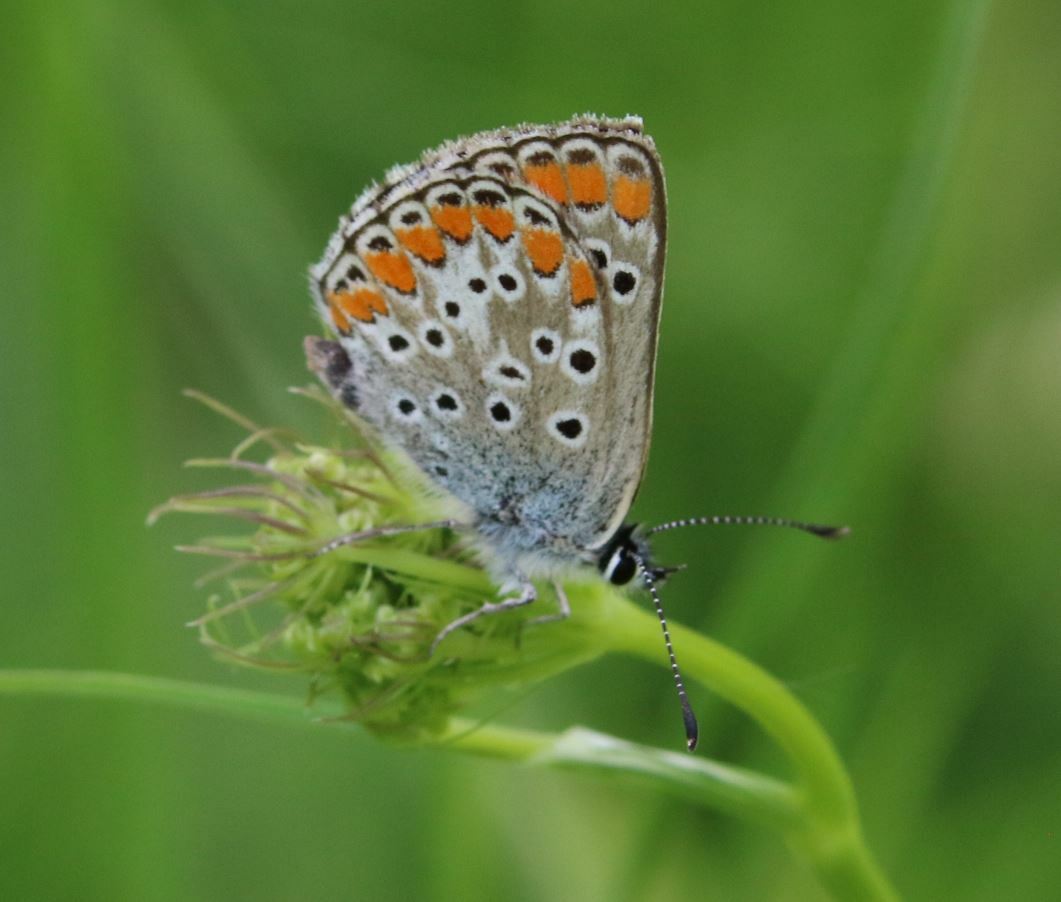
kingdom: Animalia
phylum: Arthropoda
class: Insecta
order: Lepidoptera
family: Lycaenidae
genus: Aricia
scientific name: Aricia agestis
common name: Brown argus
